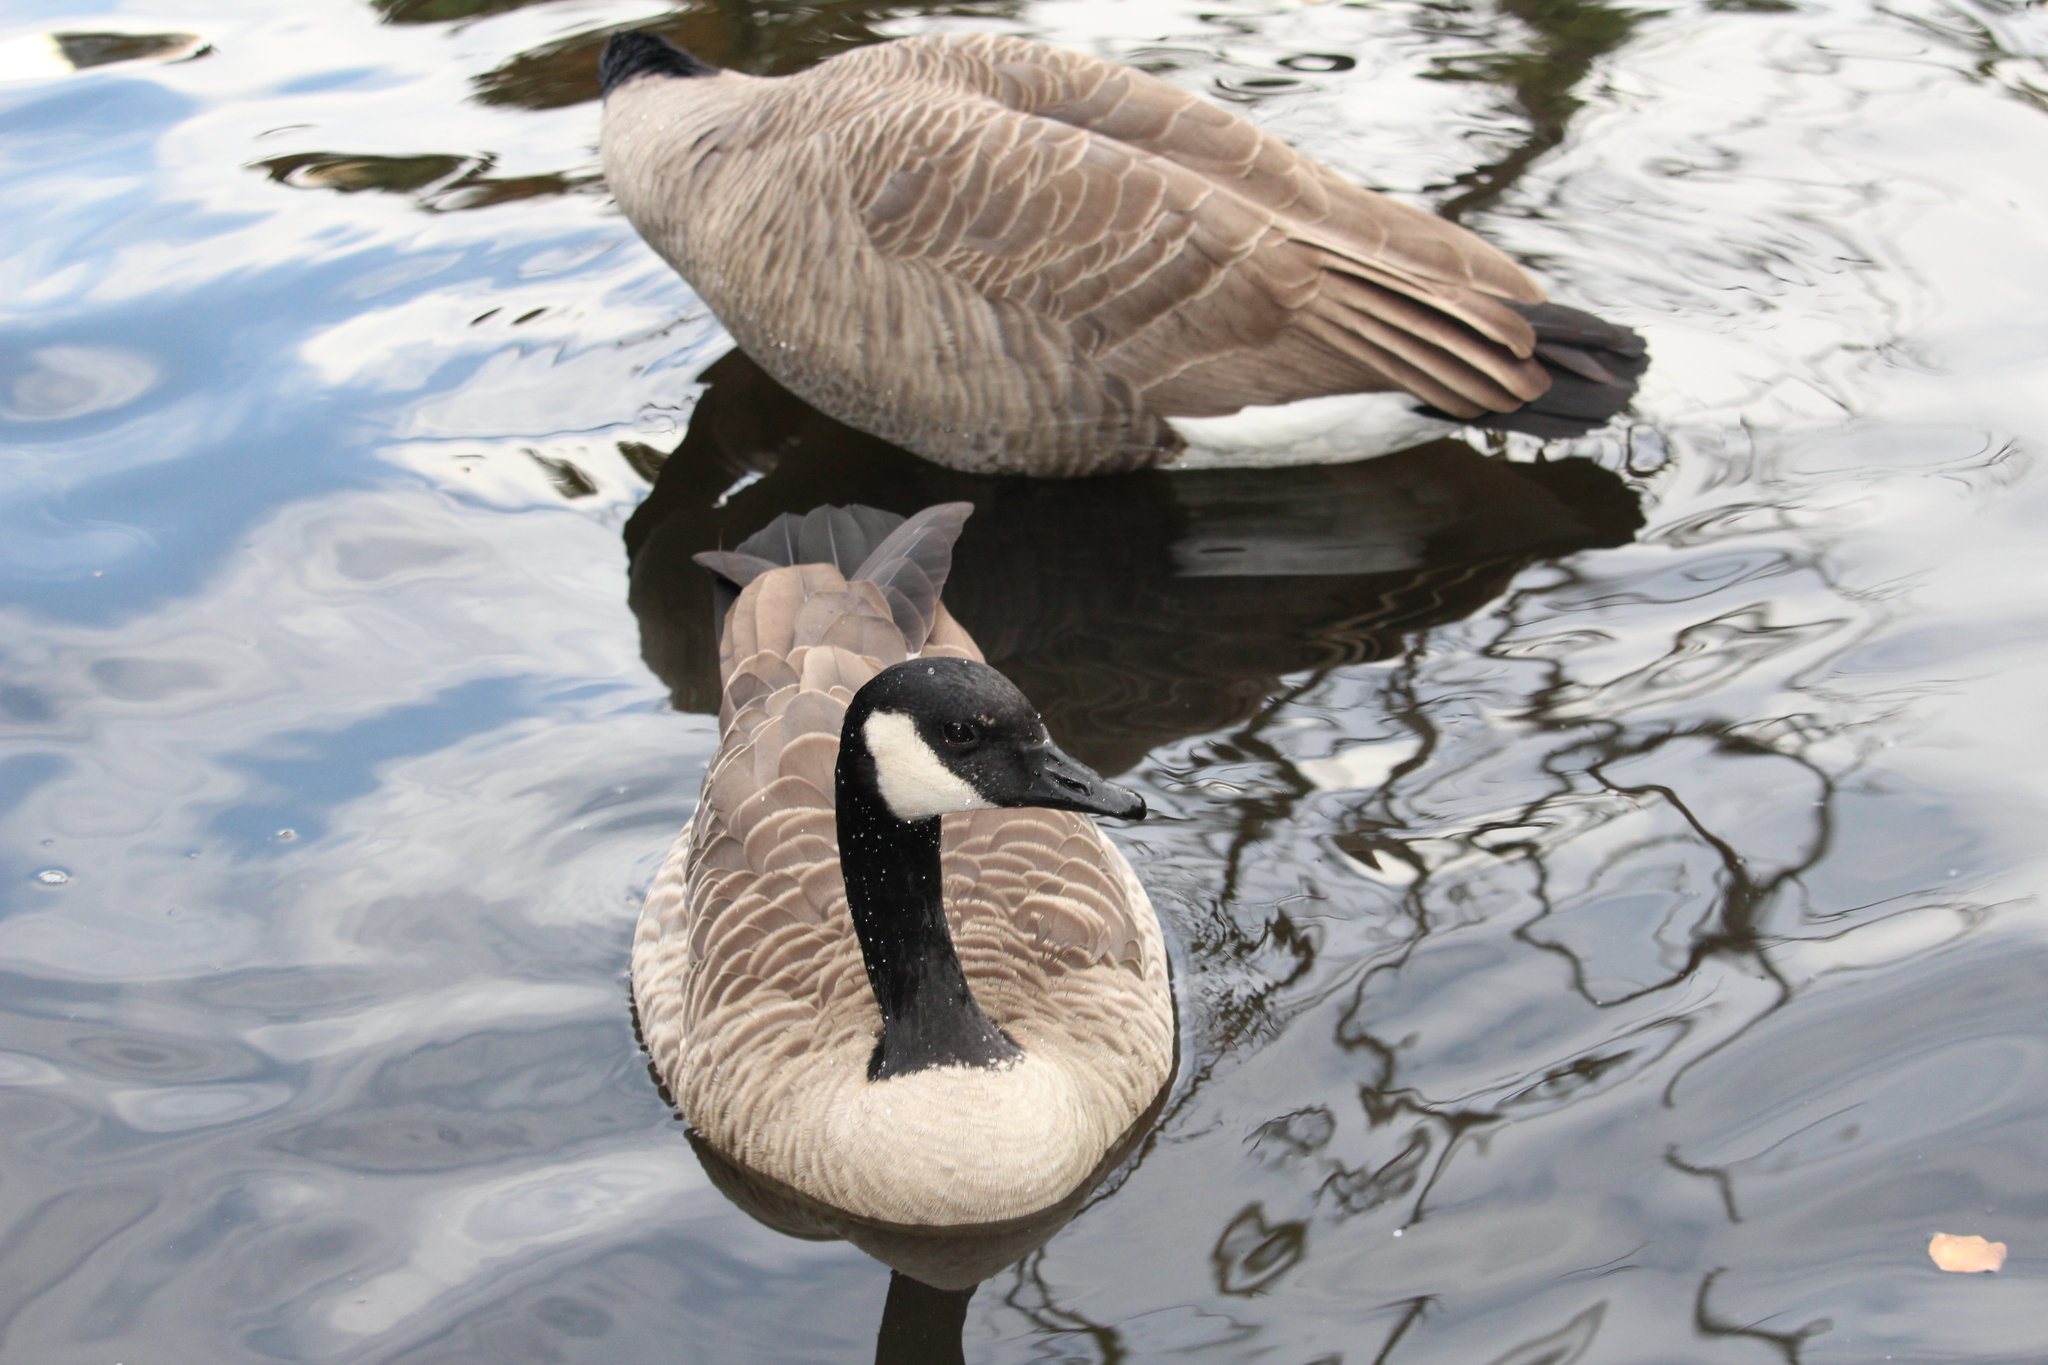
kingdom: Animalia
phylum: Chordata
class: Aves
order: Anseriformes
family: Anatidae
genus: Branta
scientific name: Branta canadensis
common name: Canada goose
